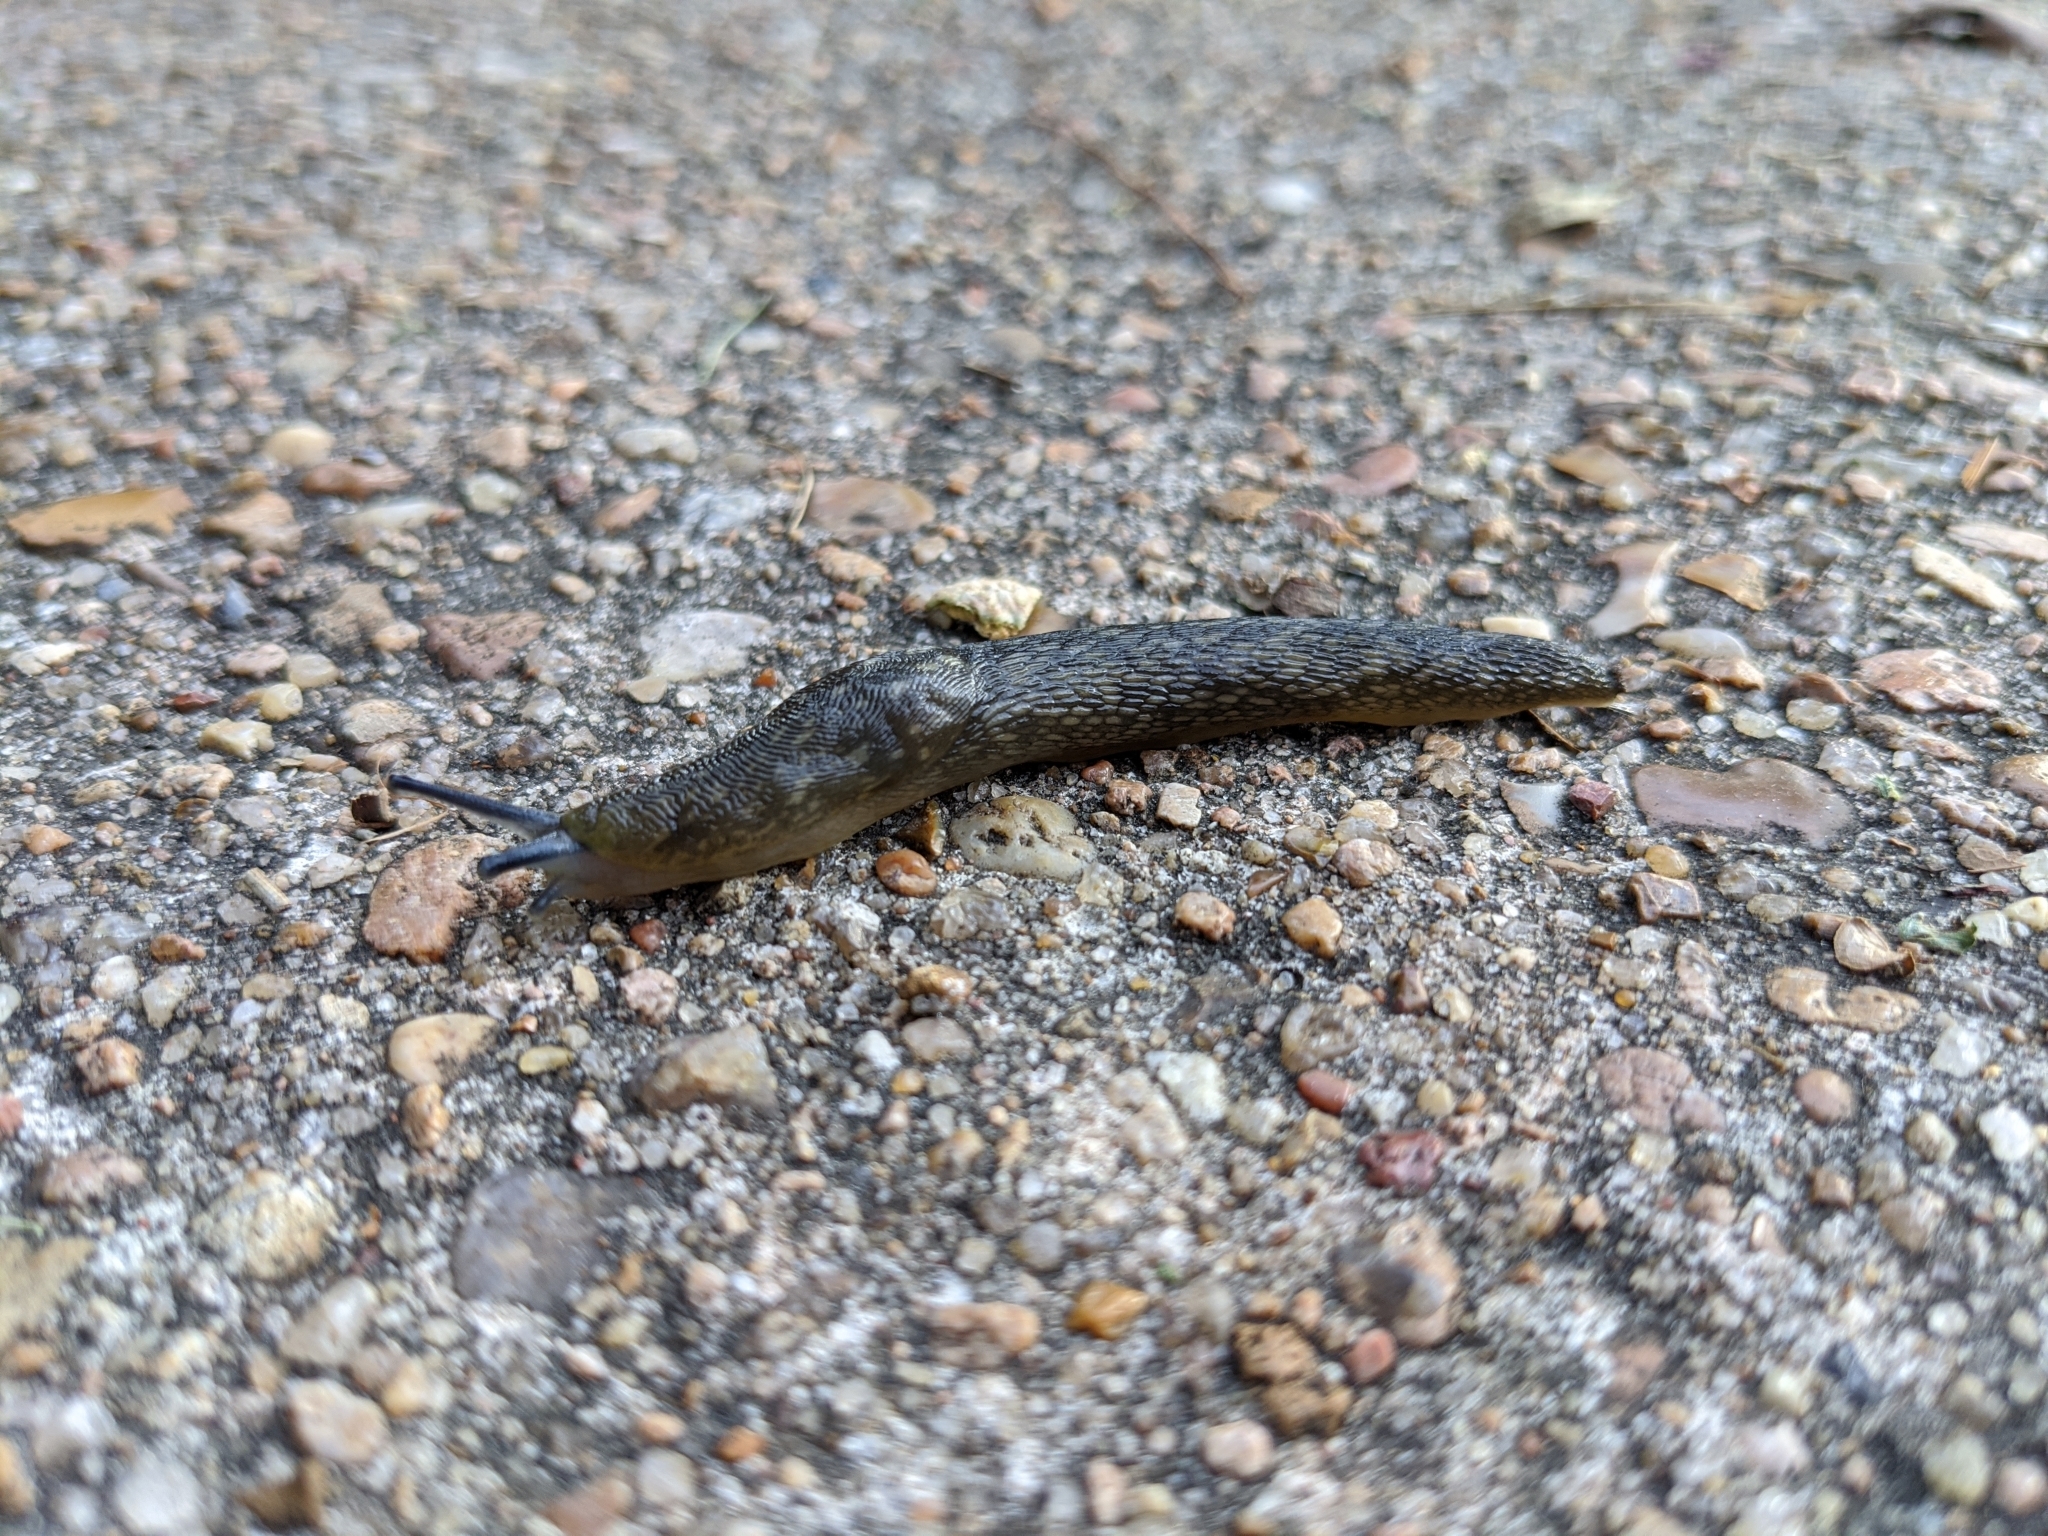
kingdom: Animalia
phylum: Mollusca
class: Gastropoda
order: Stylommatophora
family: Limacidae
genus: Limacus
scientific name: Limacus flavus
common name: Yellow gardenslug
